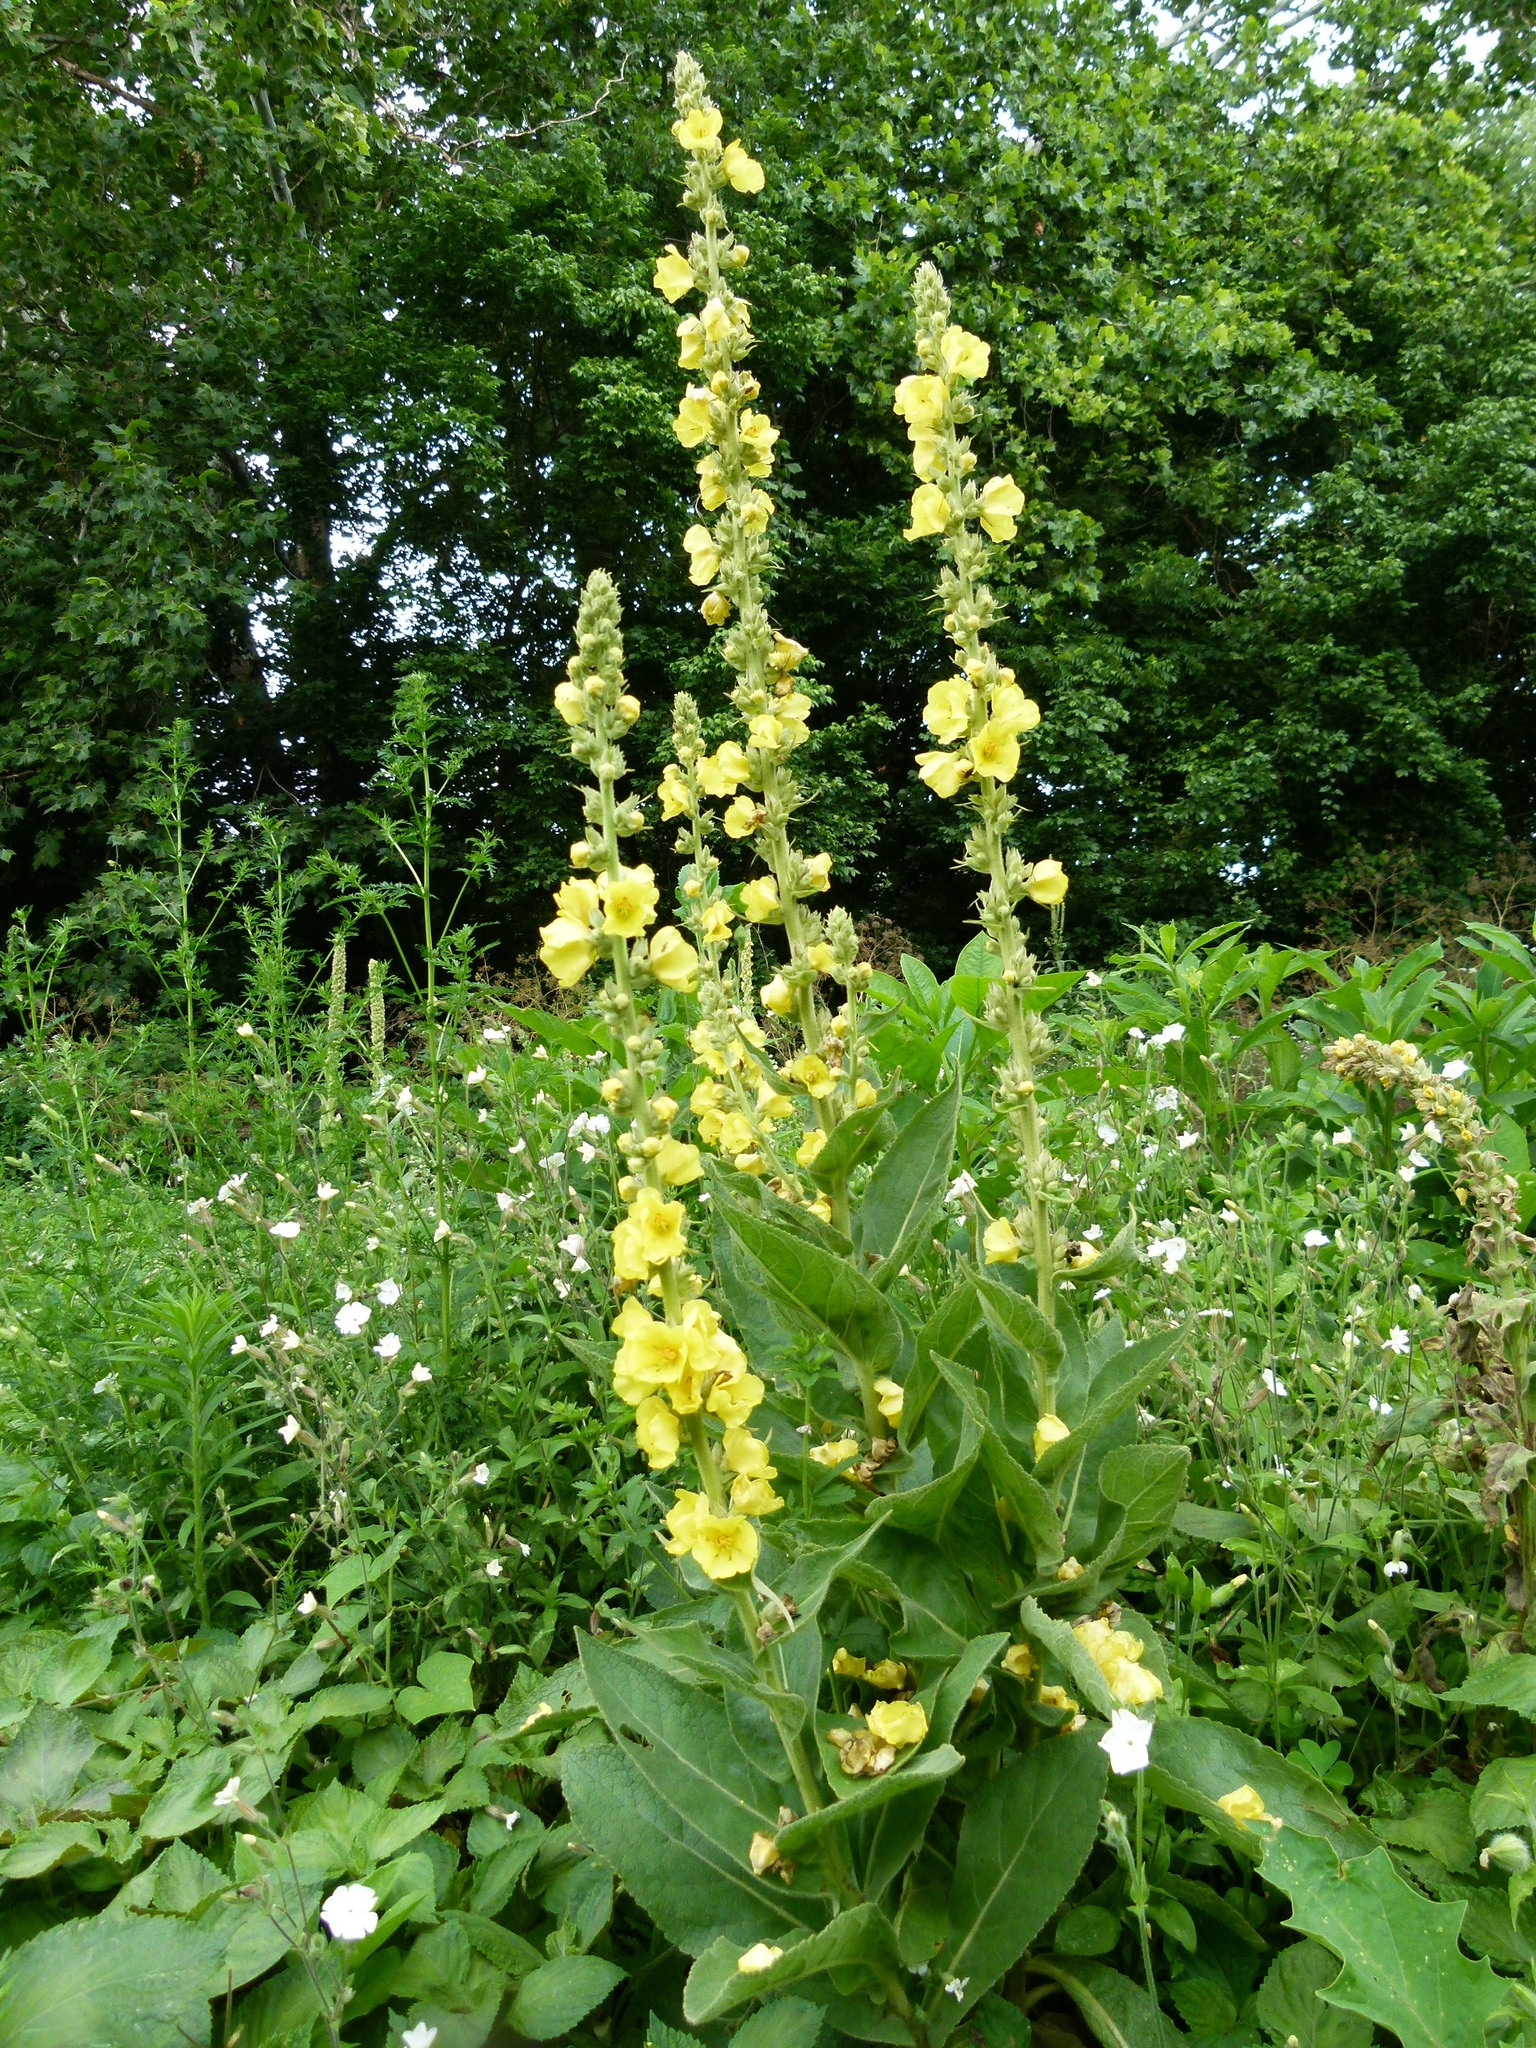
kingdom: Plantae
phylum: Tracheophyta
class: Magnoliopsida
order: Lamiales
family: Scrophulariaceae
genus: Verbascum
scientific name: Verbascum phlomoides
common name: Orange mullein
